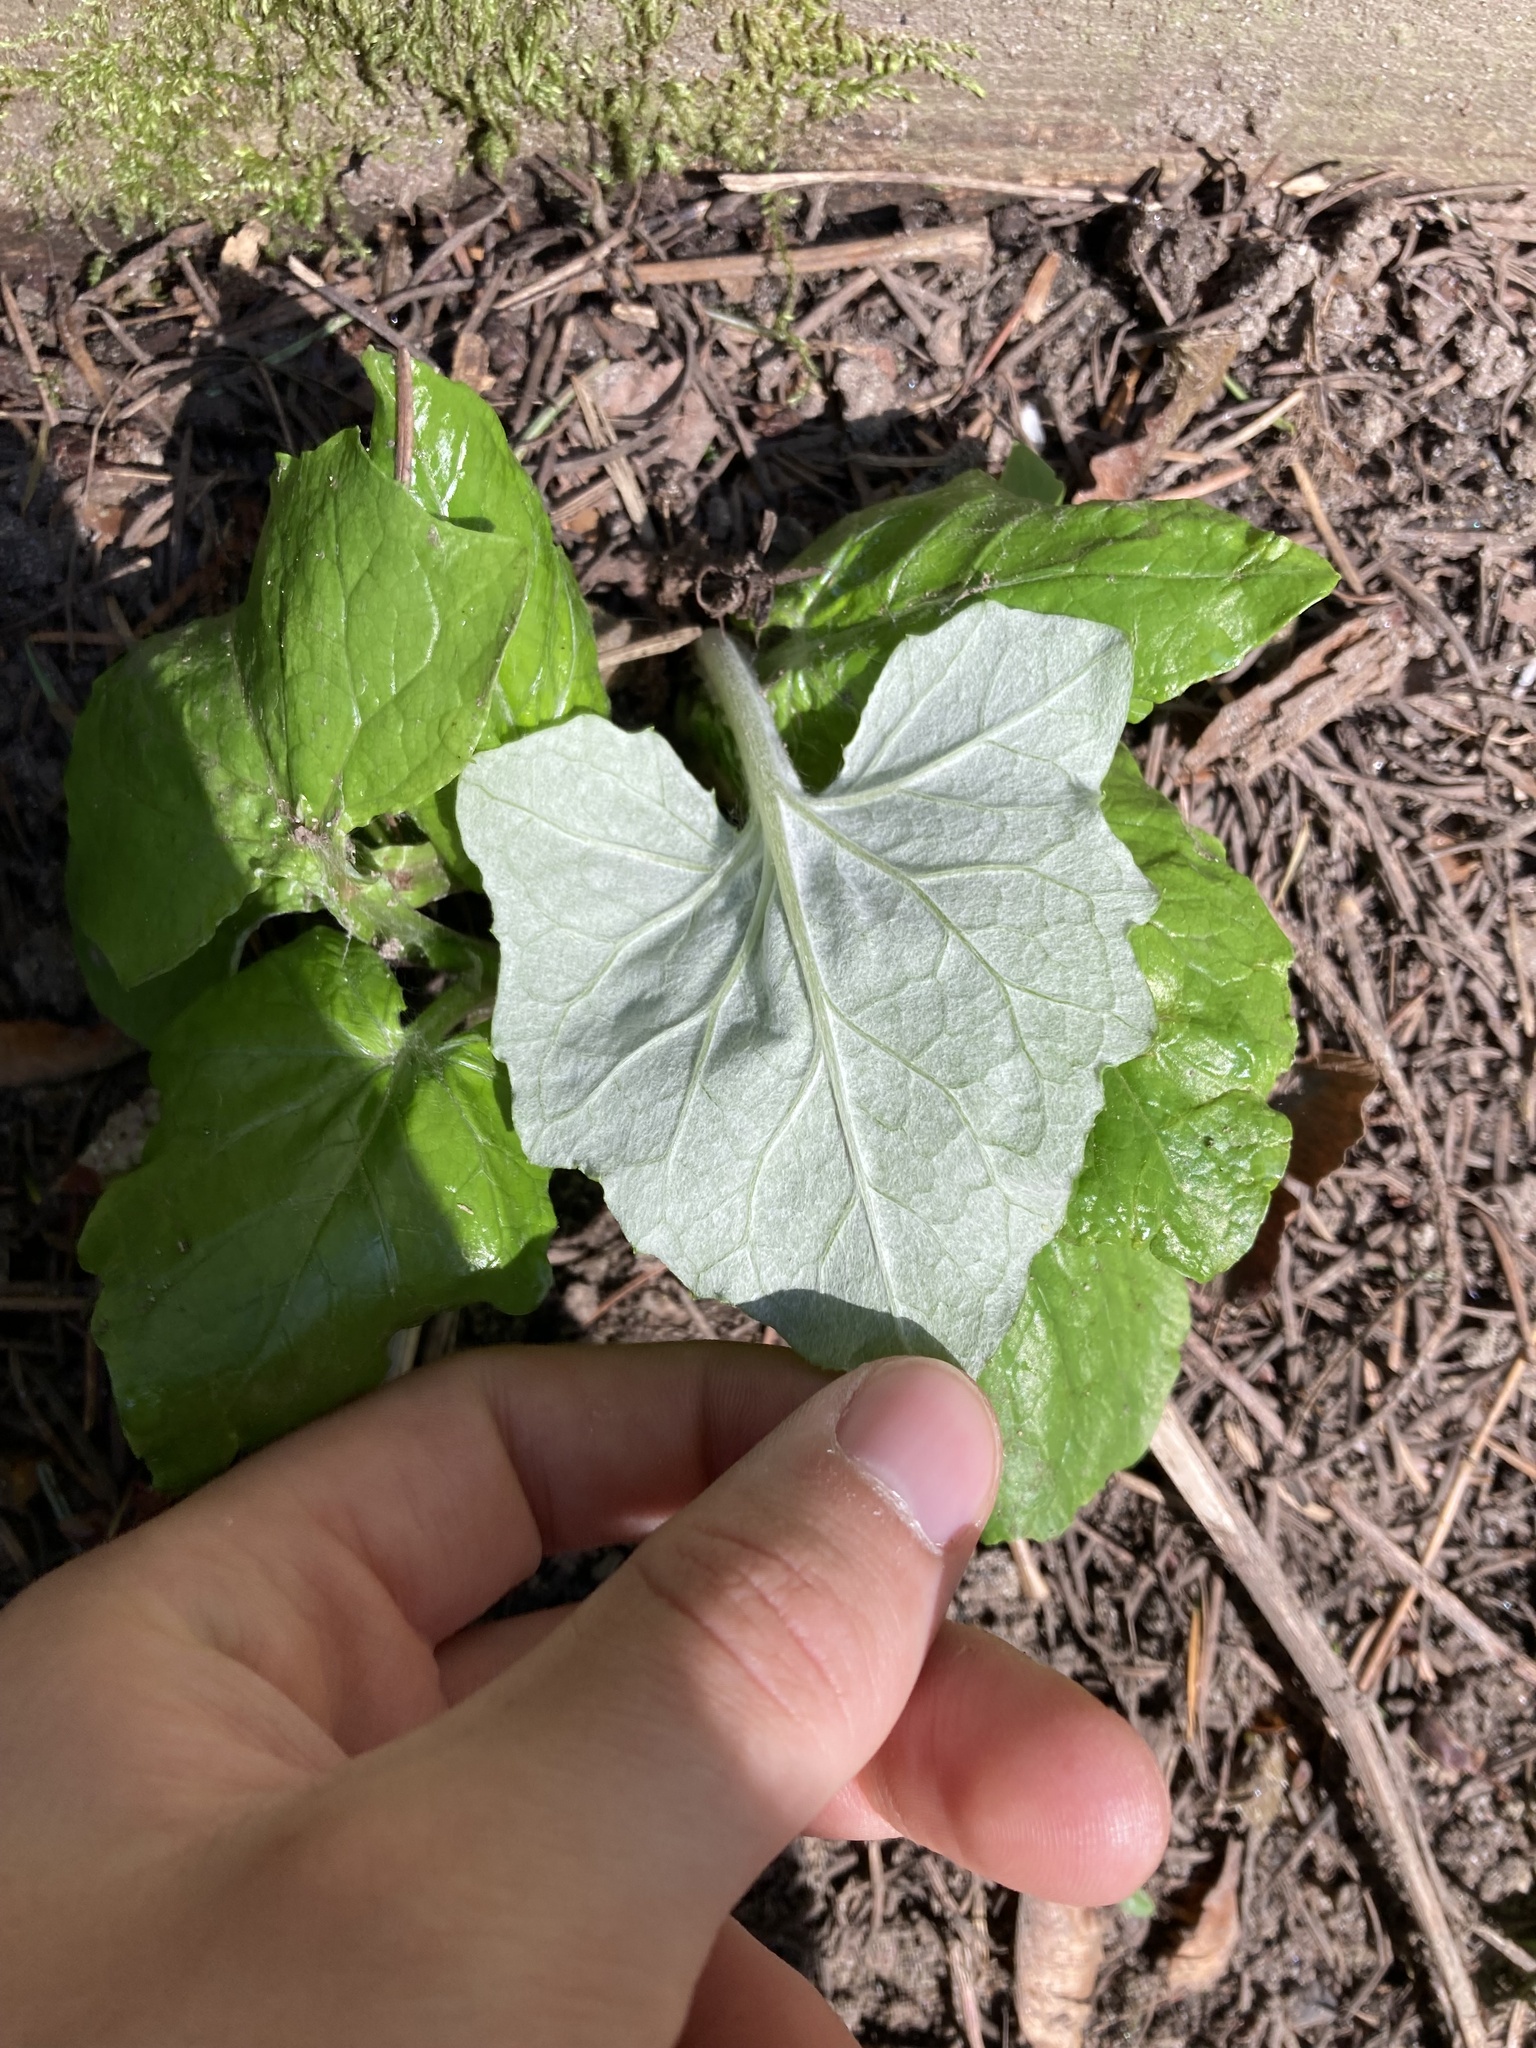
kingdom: Plantae
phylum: Tracheophyta
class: Magnoliopsida
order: Asterales
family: Asteraceae
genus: Adenocaulon
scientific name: Adenocaulon bicolor
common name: Trailplant
